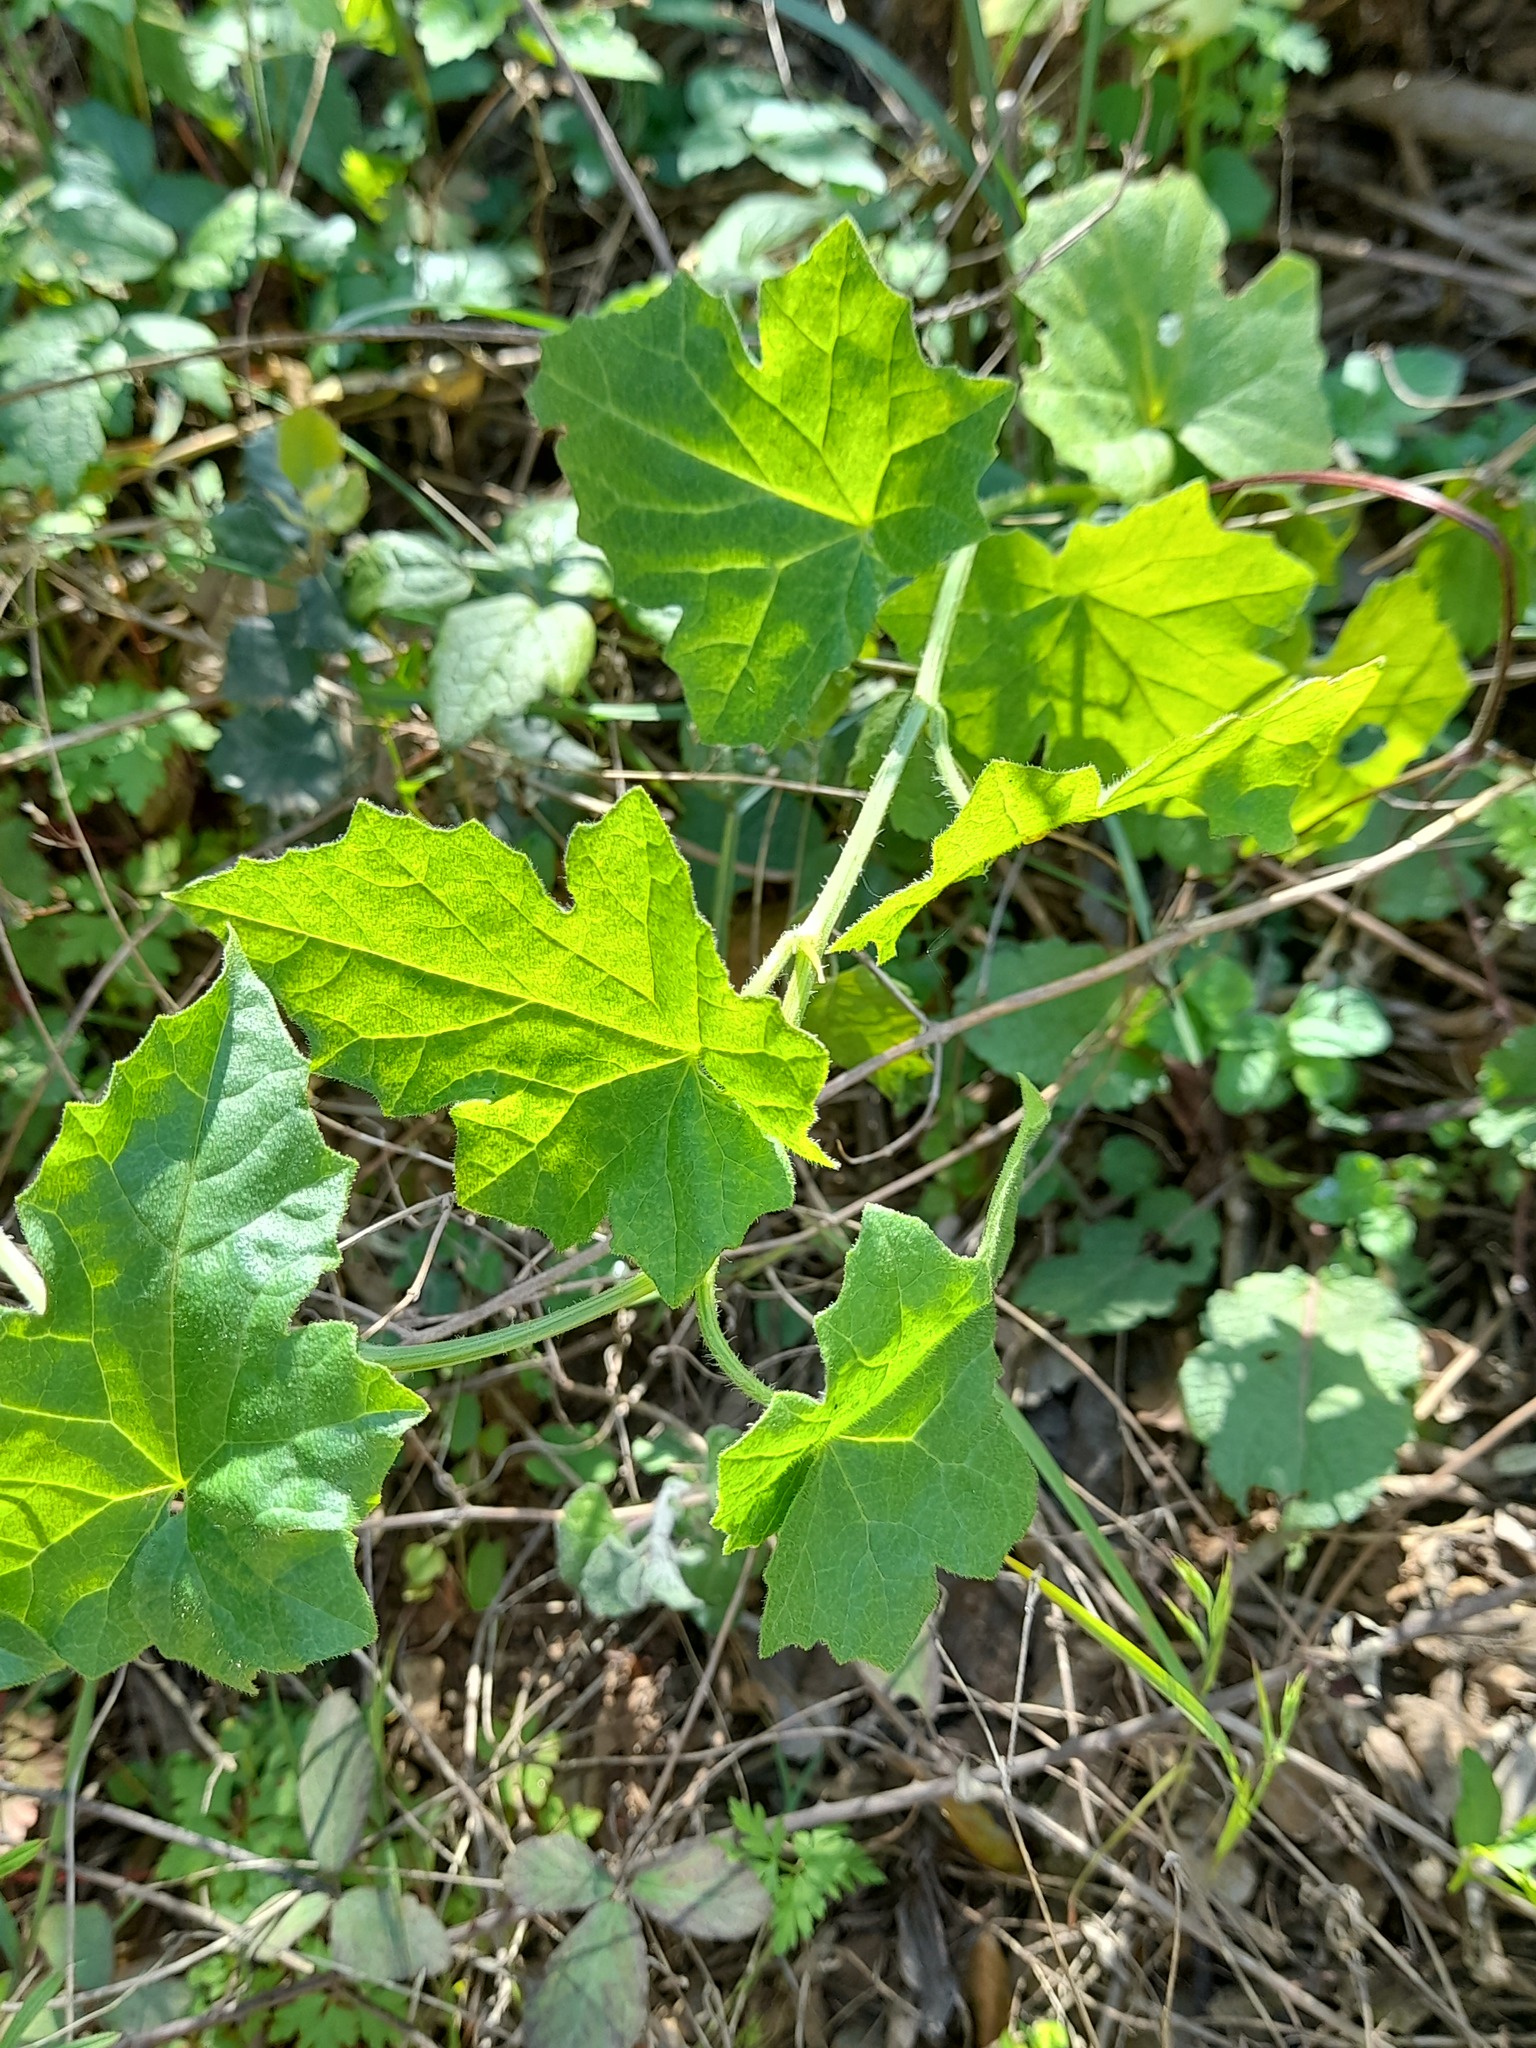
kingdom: Plantae
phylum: Tracheophyta
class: Magnoliopsida
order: Cucurbitales
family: Cucurbitaceae
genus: Bryonia
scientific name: Bryonia dioica
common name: White bryony
